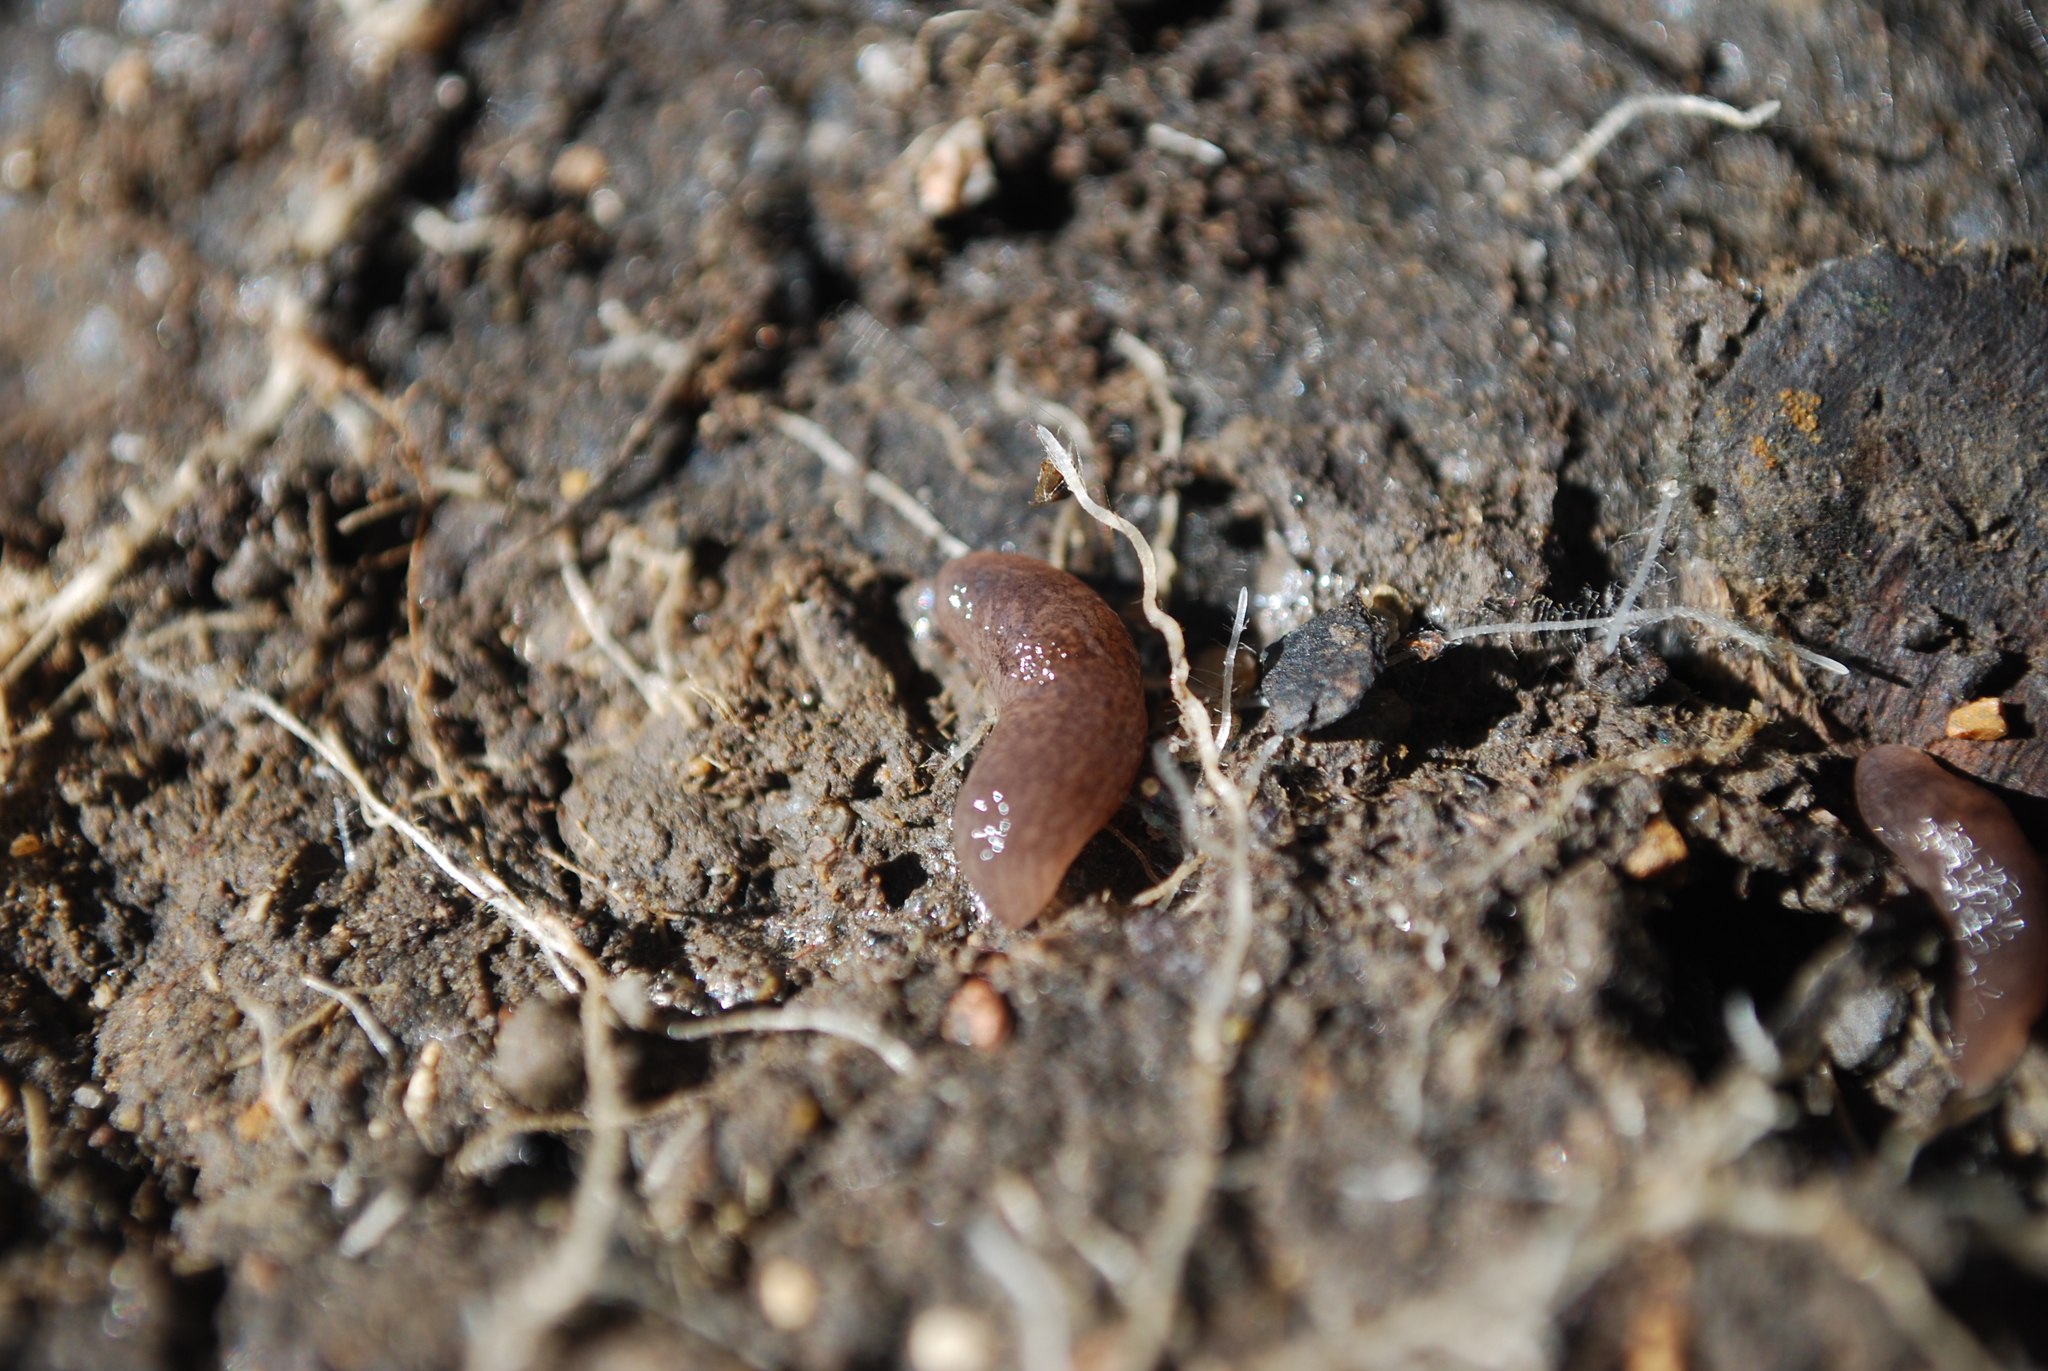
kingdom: Animalia
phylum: Mollusca
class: Gastropoda
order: Stylommatophora
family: Agriolimacidae
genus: Deroceras
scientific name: Deroceras invadens
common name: Caruana's slug
